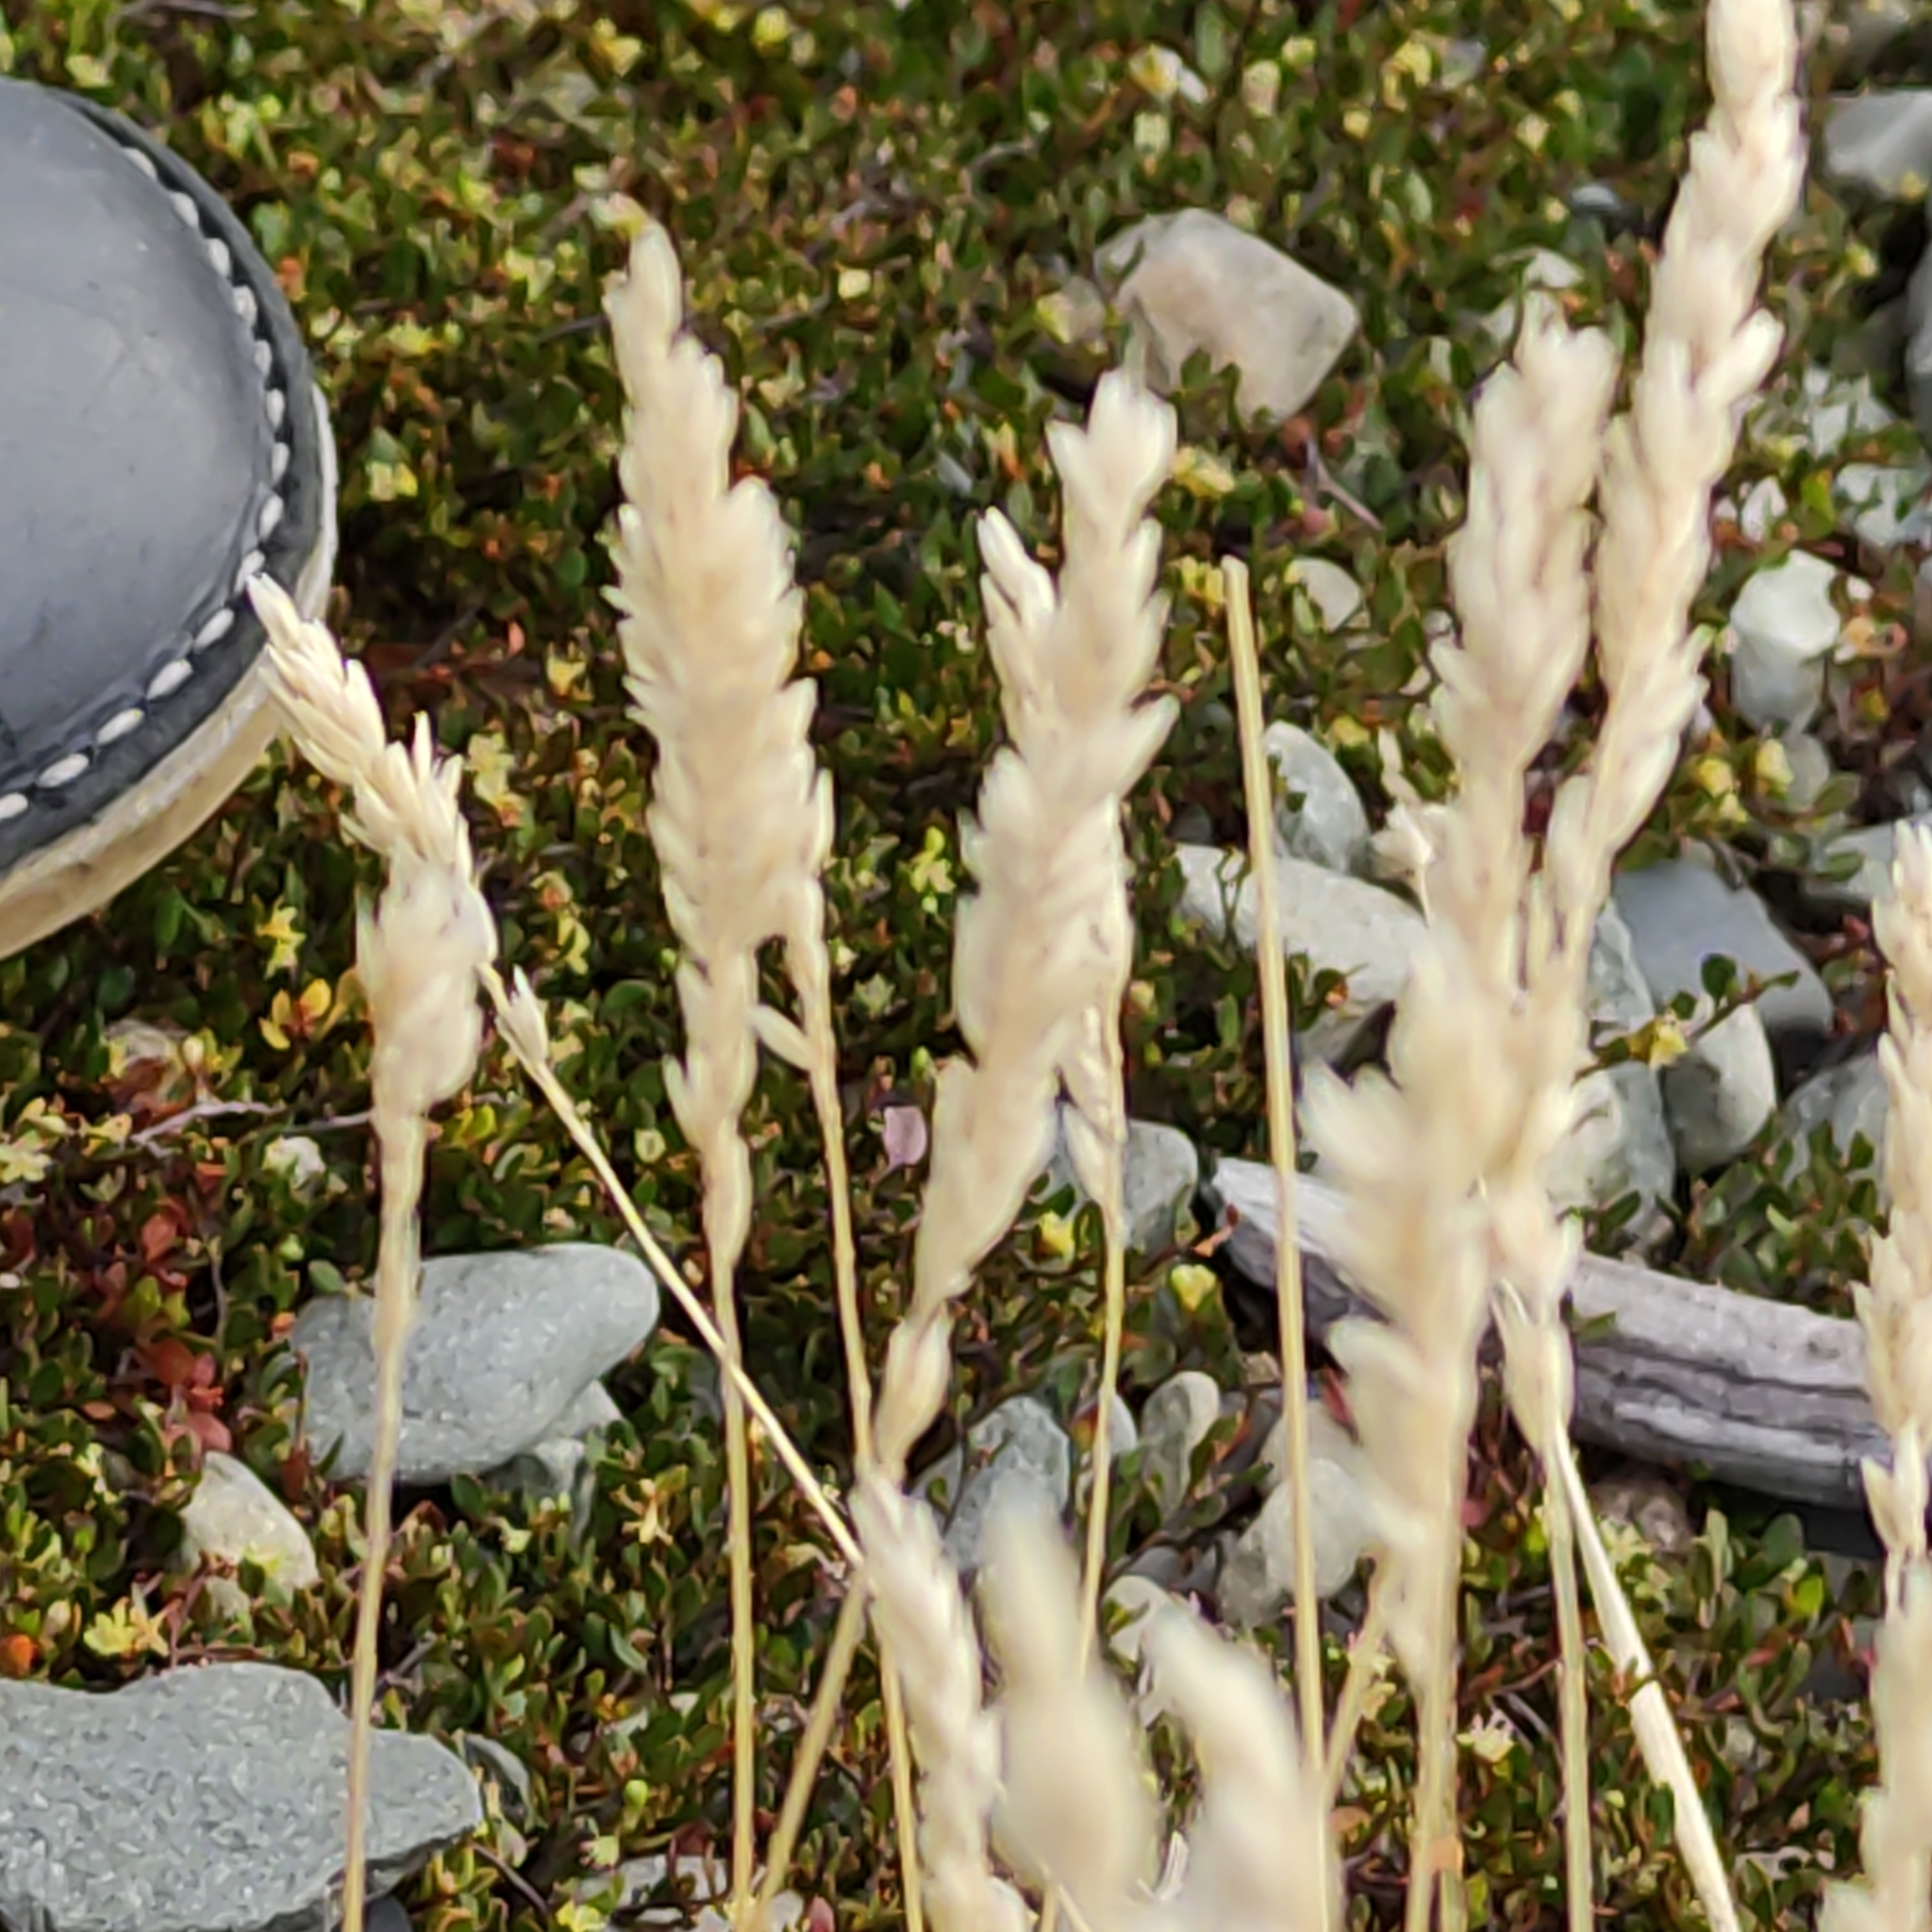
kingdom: Plantae
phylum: Tracheophyta
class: Liliopsida
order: Poales
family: Poaceae
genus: Holcus
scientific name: Holcus lanatus
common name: Yorkshire-fog
